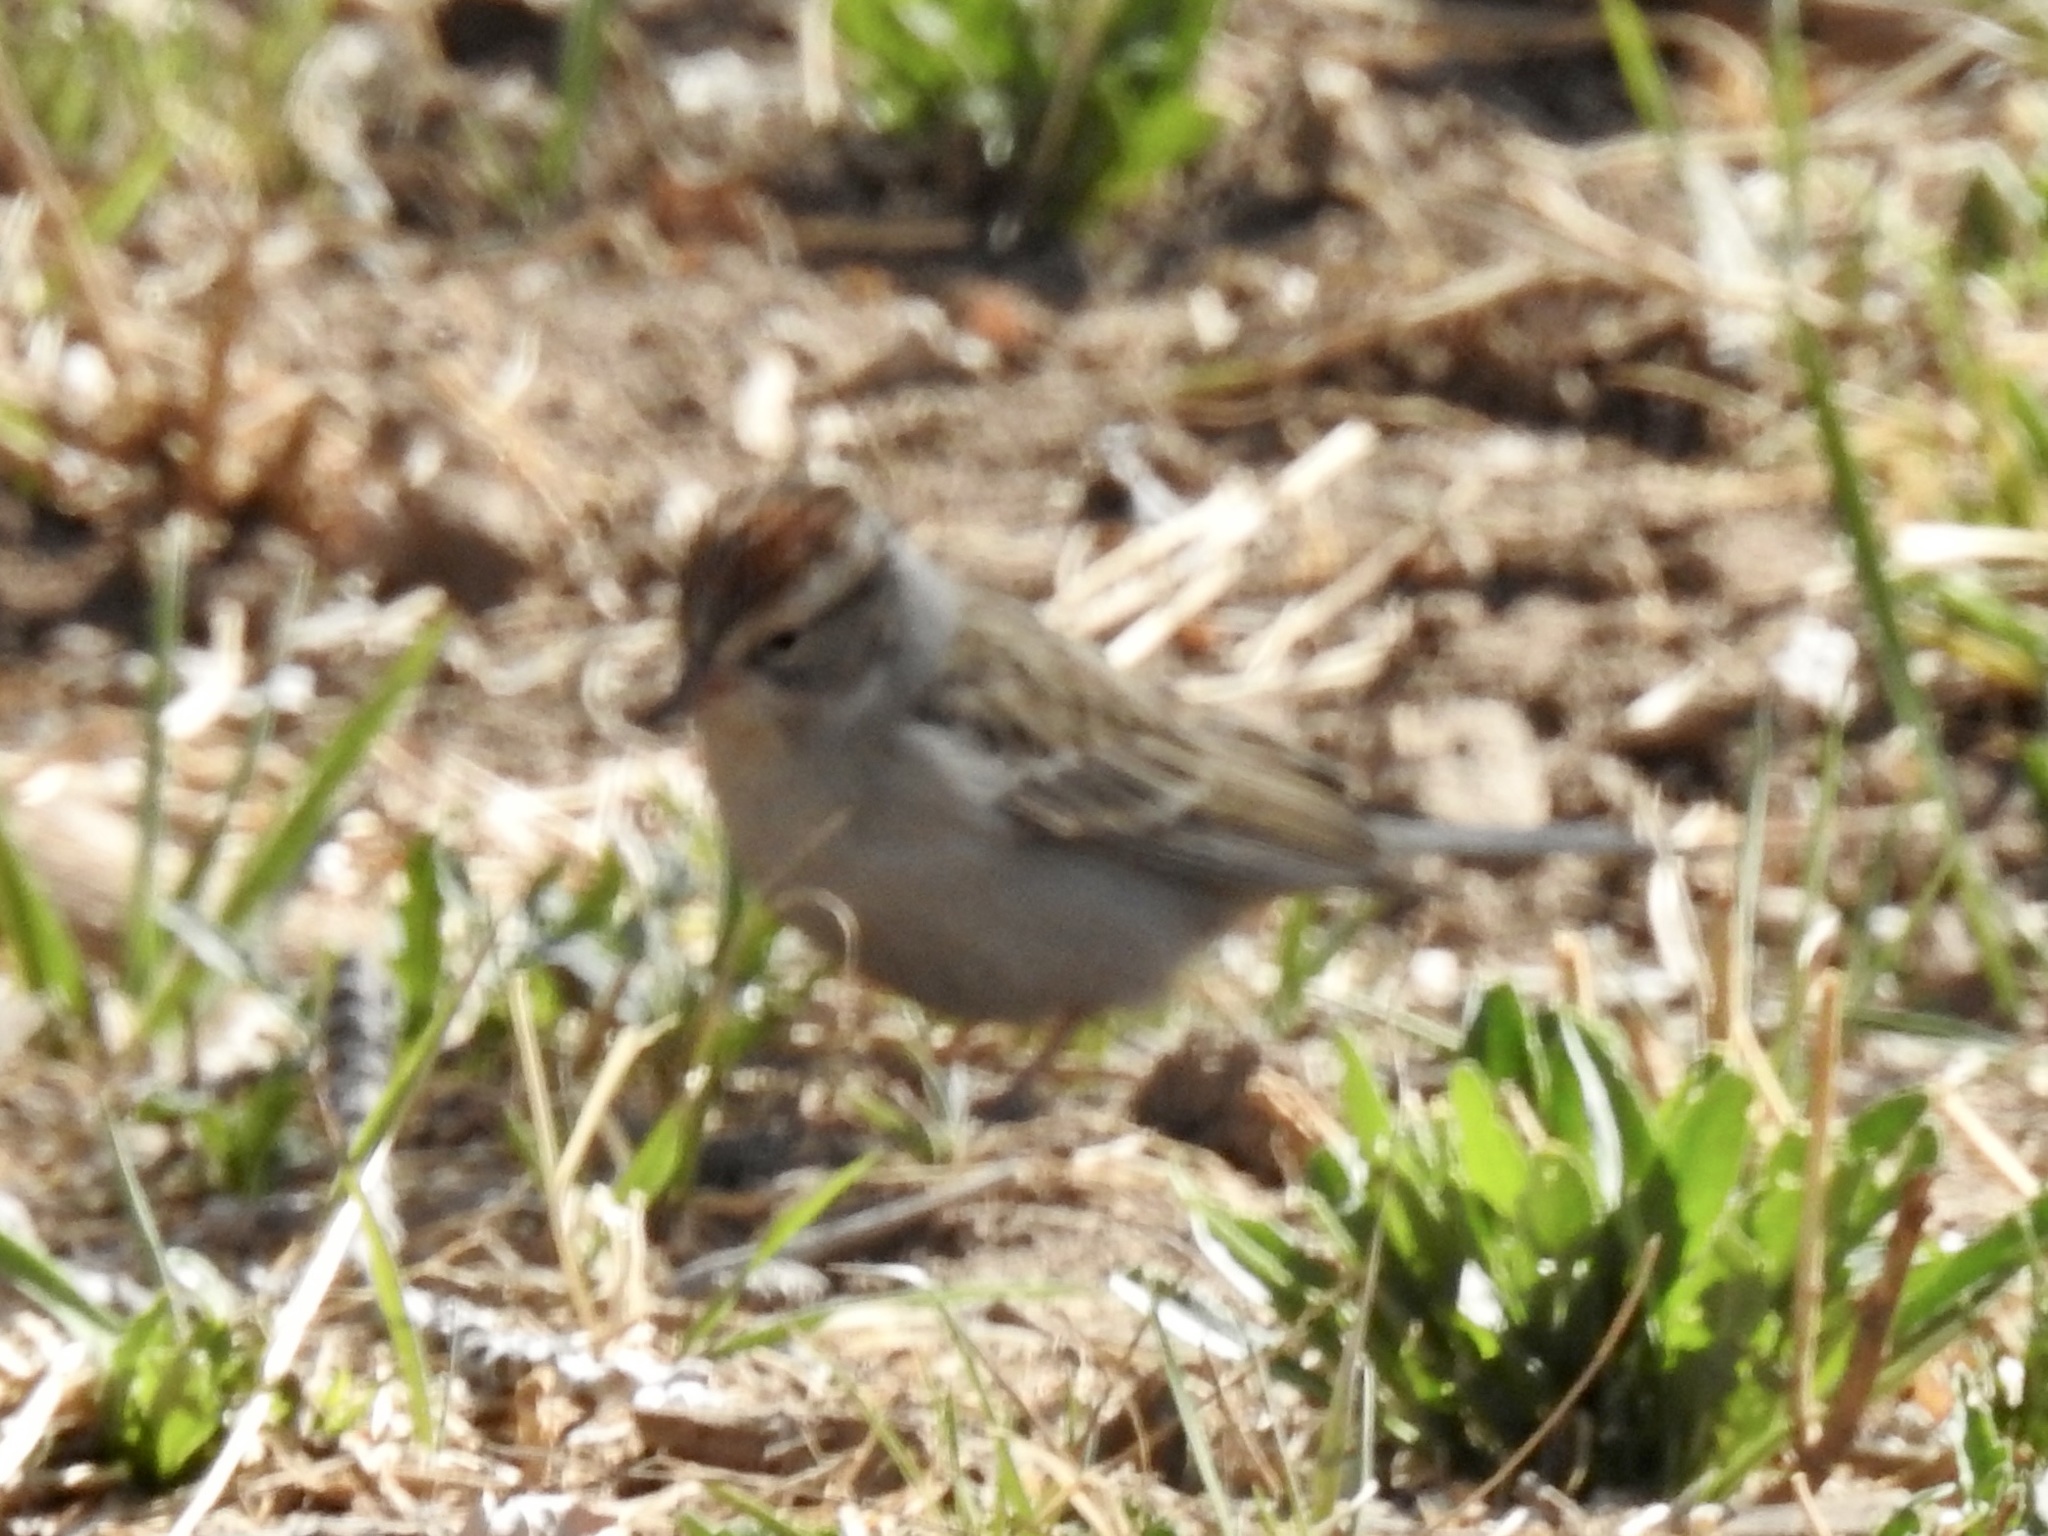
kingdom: Animalia
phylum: Chordata
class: Aves
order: Passeriformes
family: Passerellidae
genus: Spizella
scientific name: Spizella passerina
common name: Chipping sparrow
